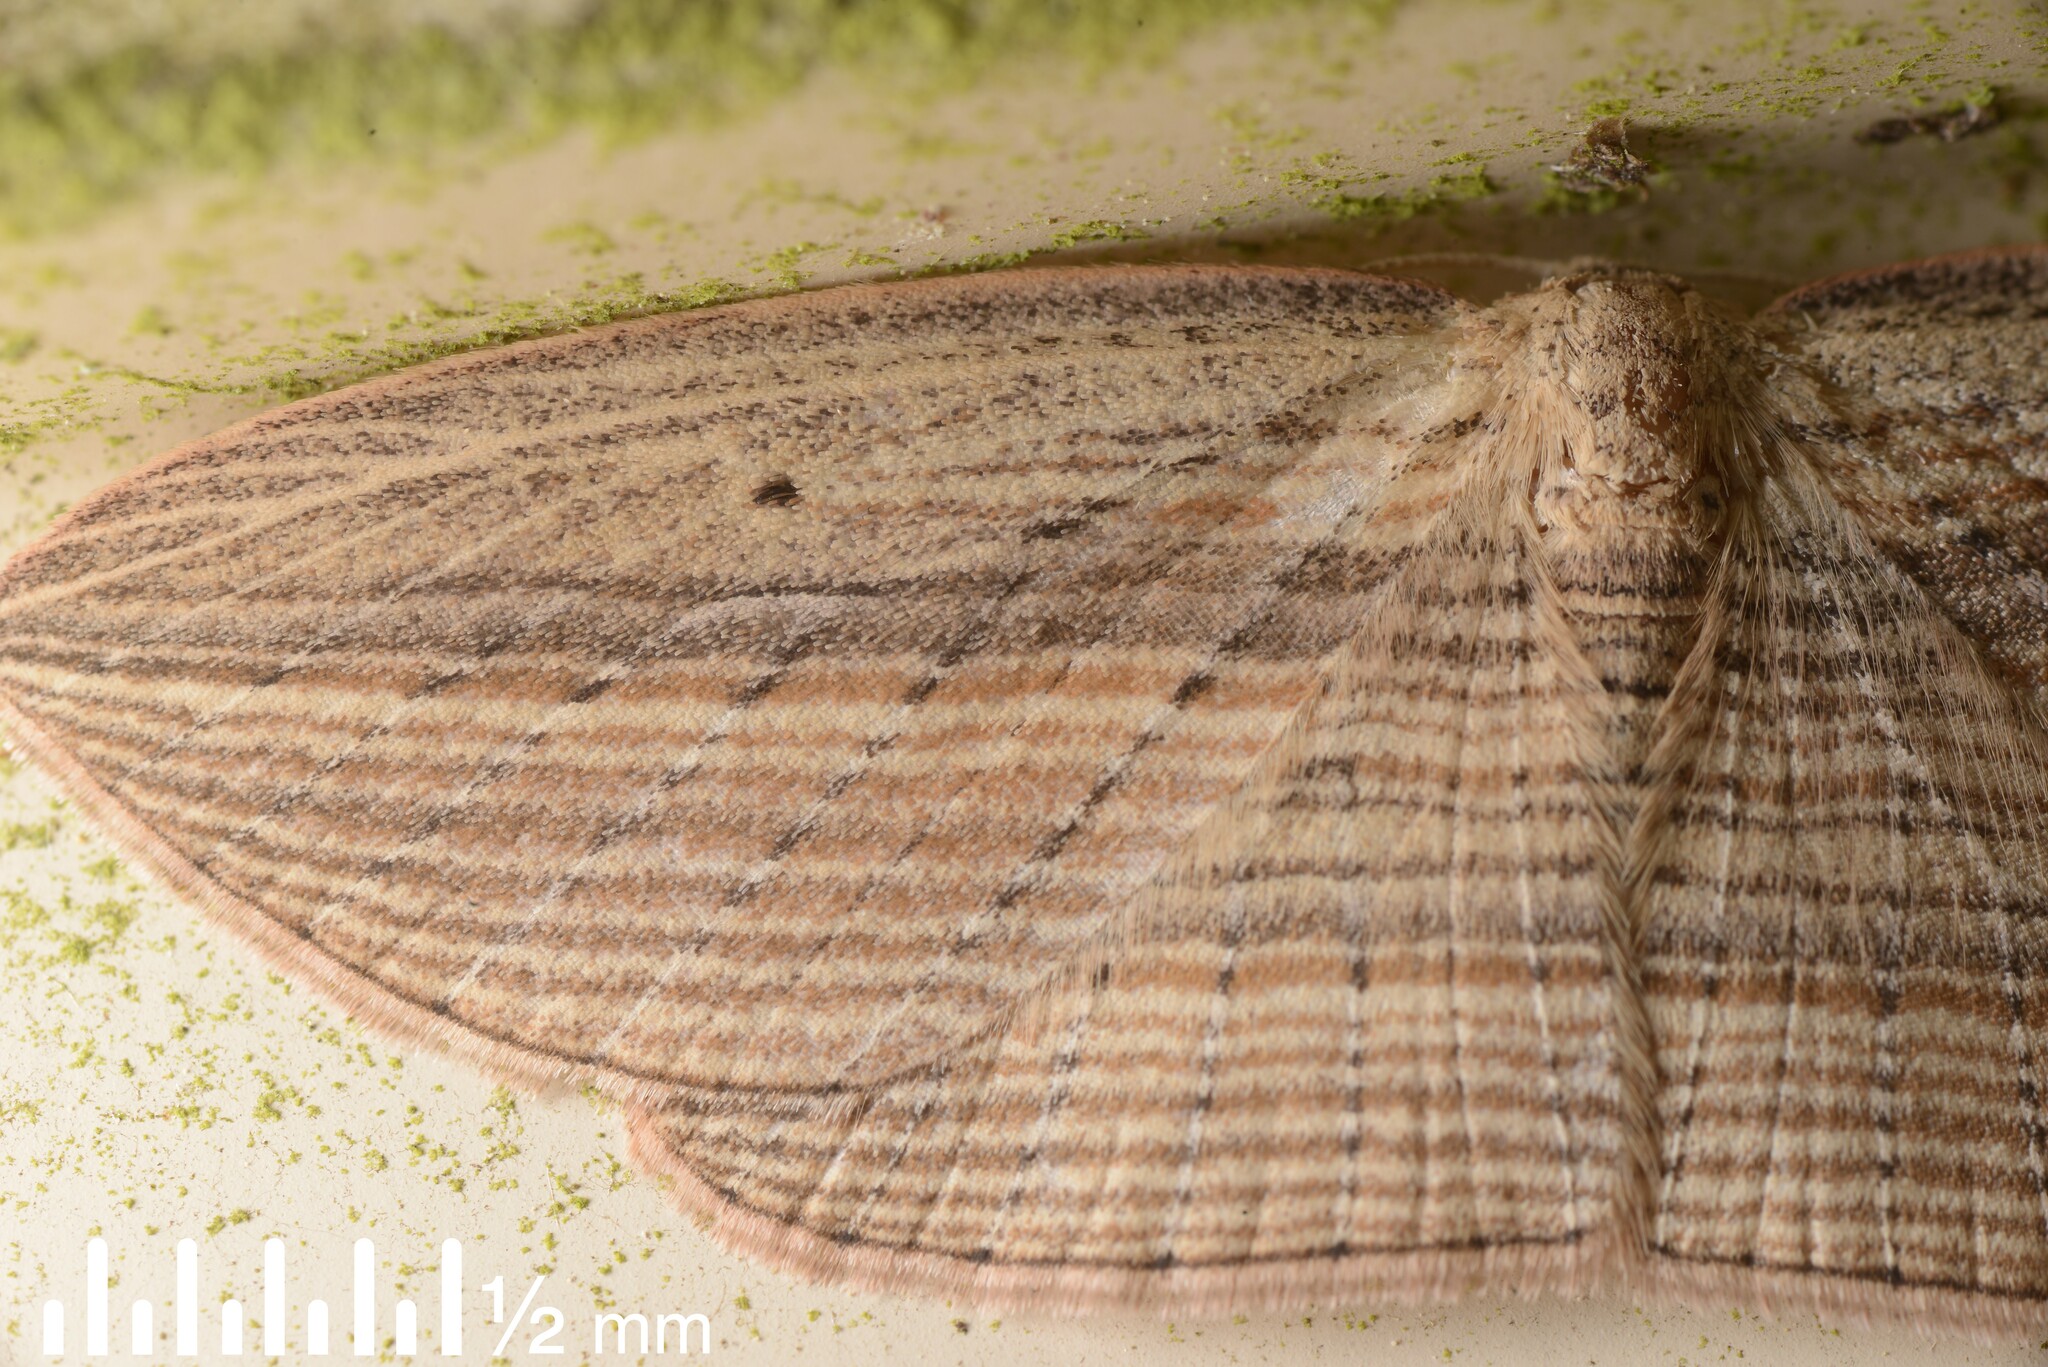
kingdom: Animalia
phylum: Arthropoda
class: Insecta
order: Lepidoptera
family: Geometridae
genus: Epiphryne
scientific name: Epiphryne verriculata
